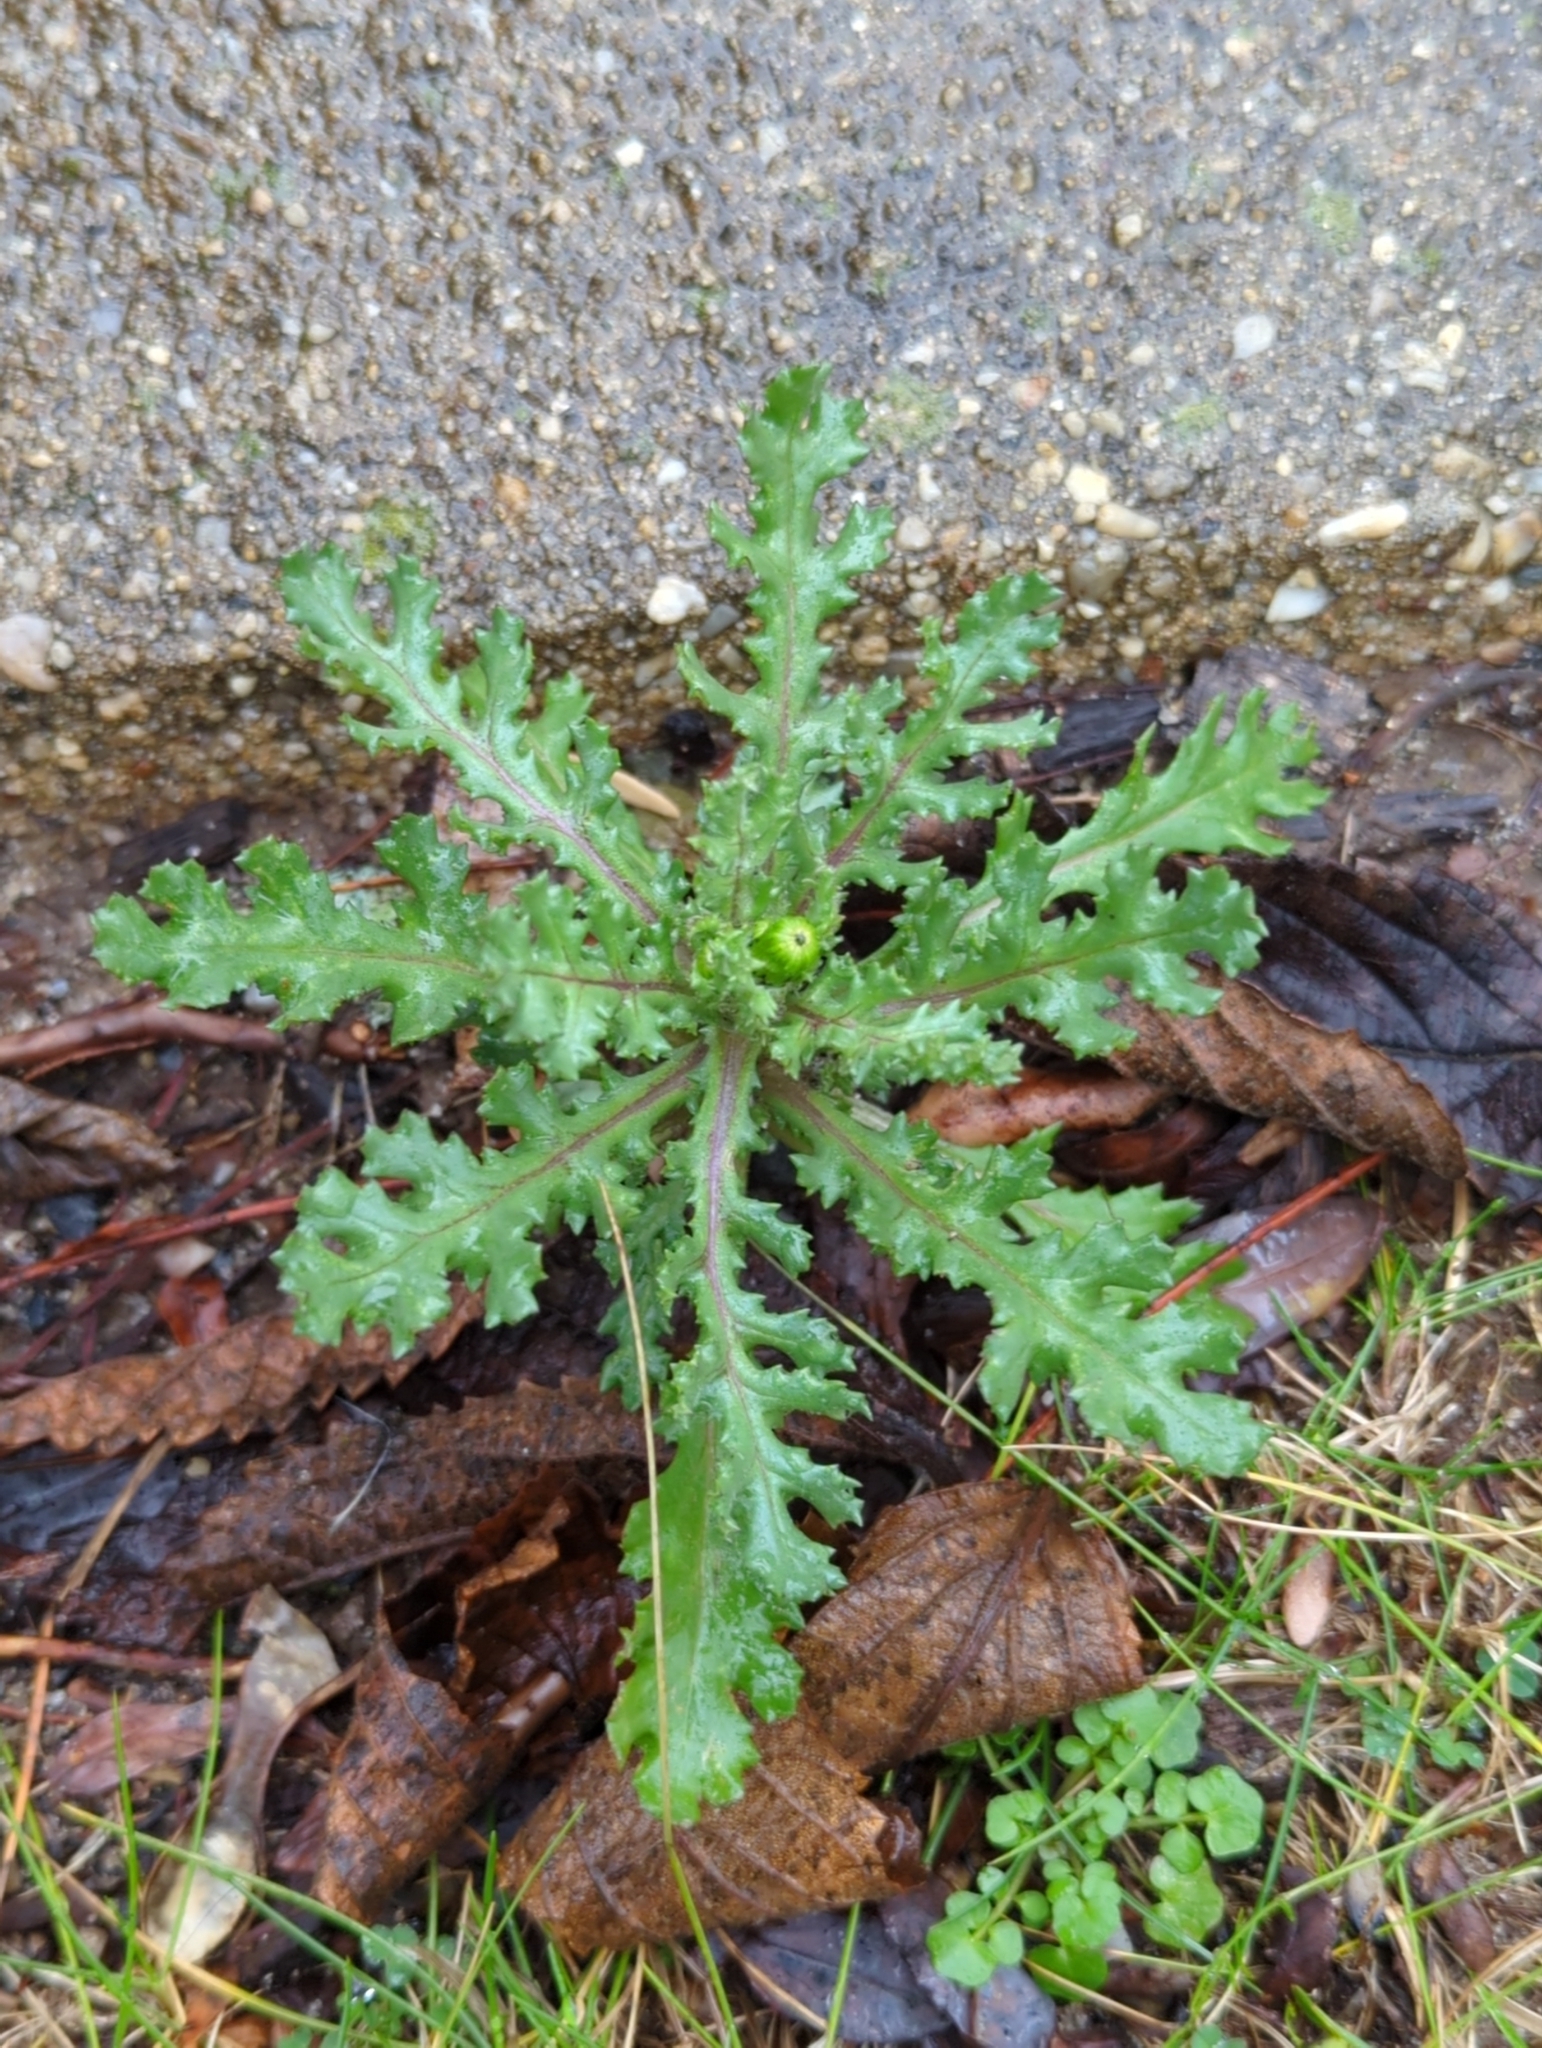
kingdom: Plantae
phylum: Tracheophyta
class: Magnoliopsida
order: Asterales
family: Asteraceae
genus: Senecio
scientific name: Senecio vulgaris
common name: Old-man-in-the-spring
